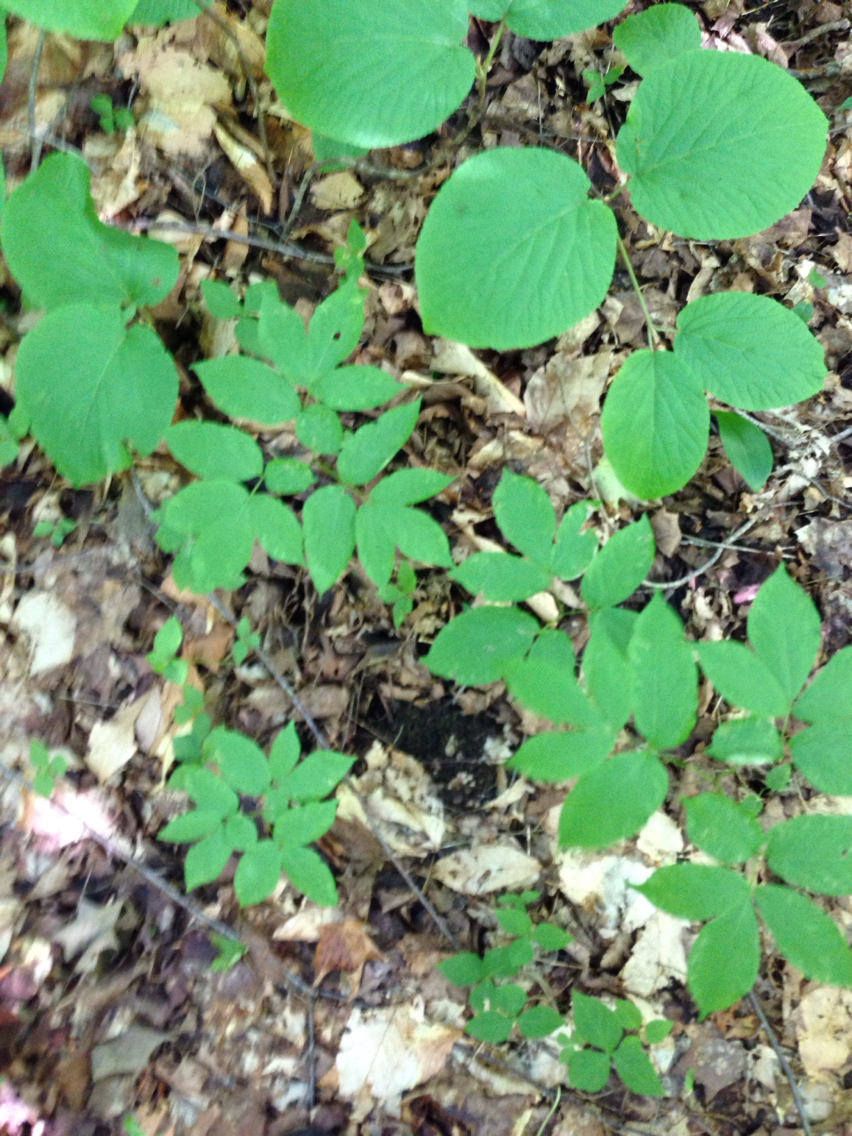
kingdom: Plantae
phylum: Tracheophyta
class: Magnoliopsida
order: Apiales
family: Araliaceae
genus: Aralia
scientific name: Aralia nudicaulis
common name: Wild sarsaparilla
